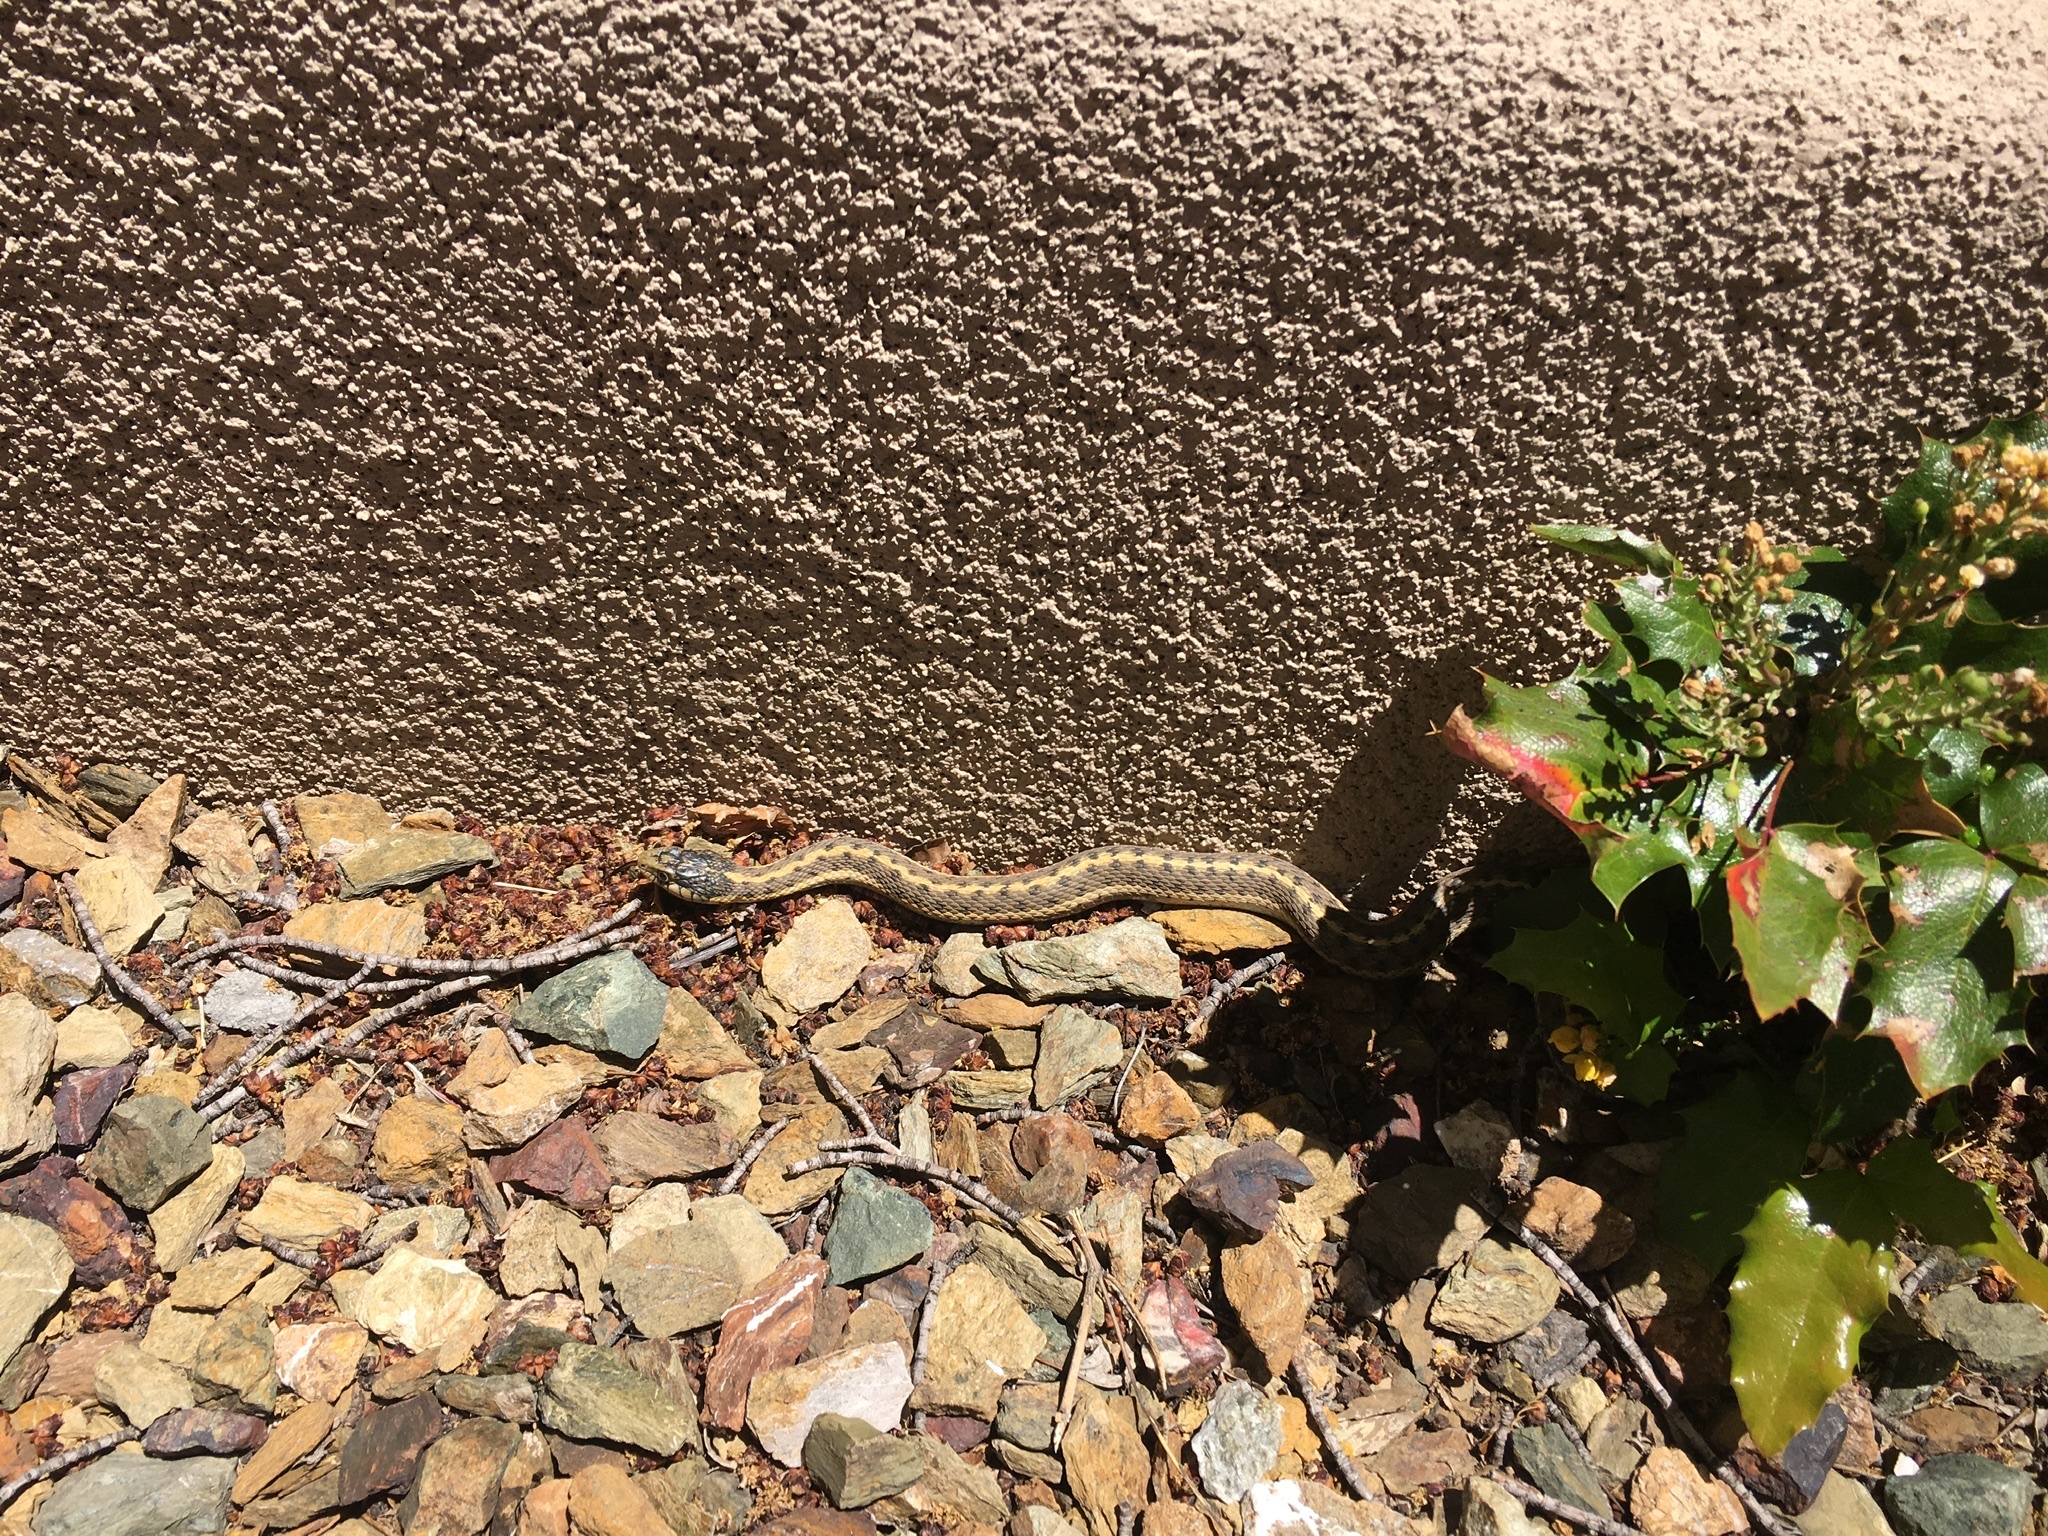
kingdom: Animalia
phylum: Chordata
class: Squamata
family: Colubridae
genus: Thamnophis
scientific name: Thamnophis elegans
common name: Western terrestrial garter snake
